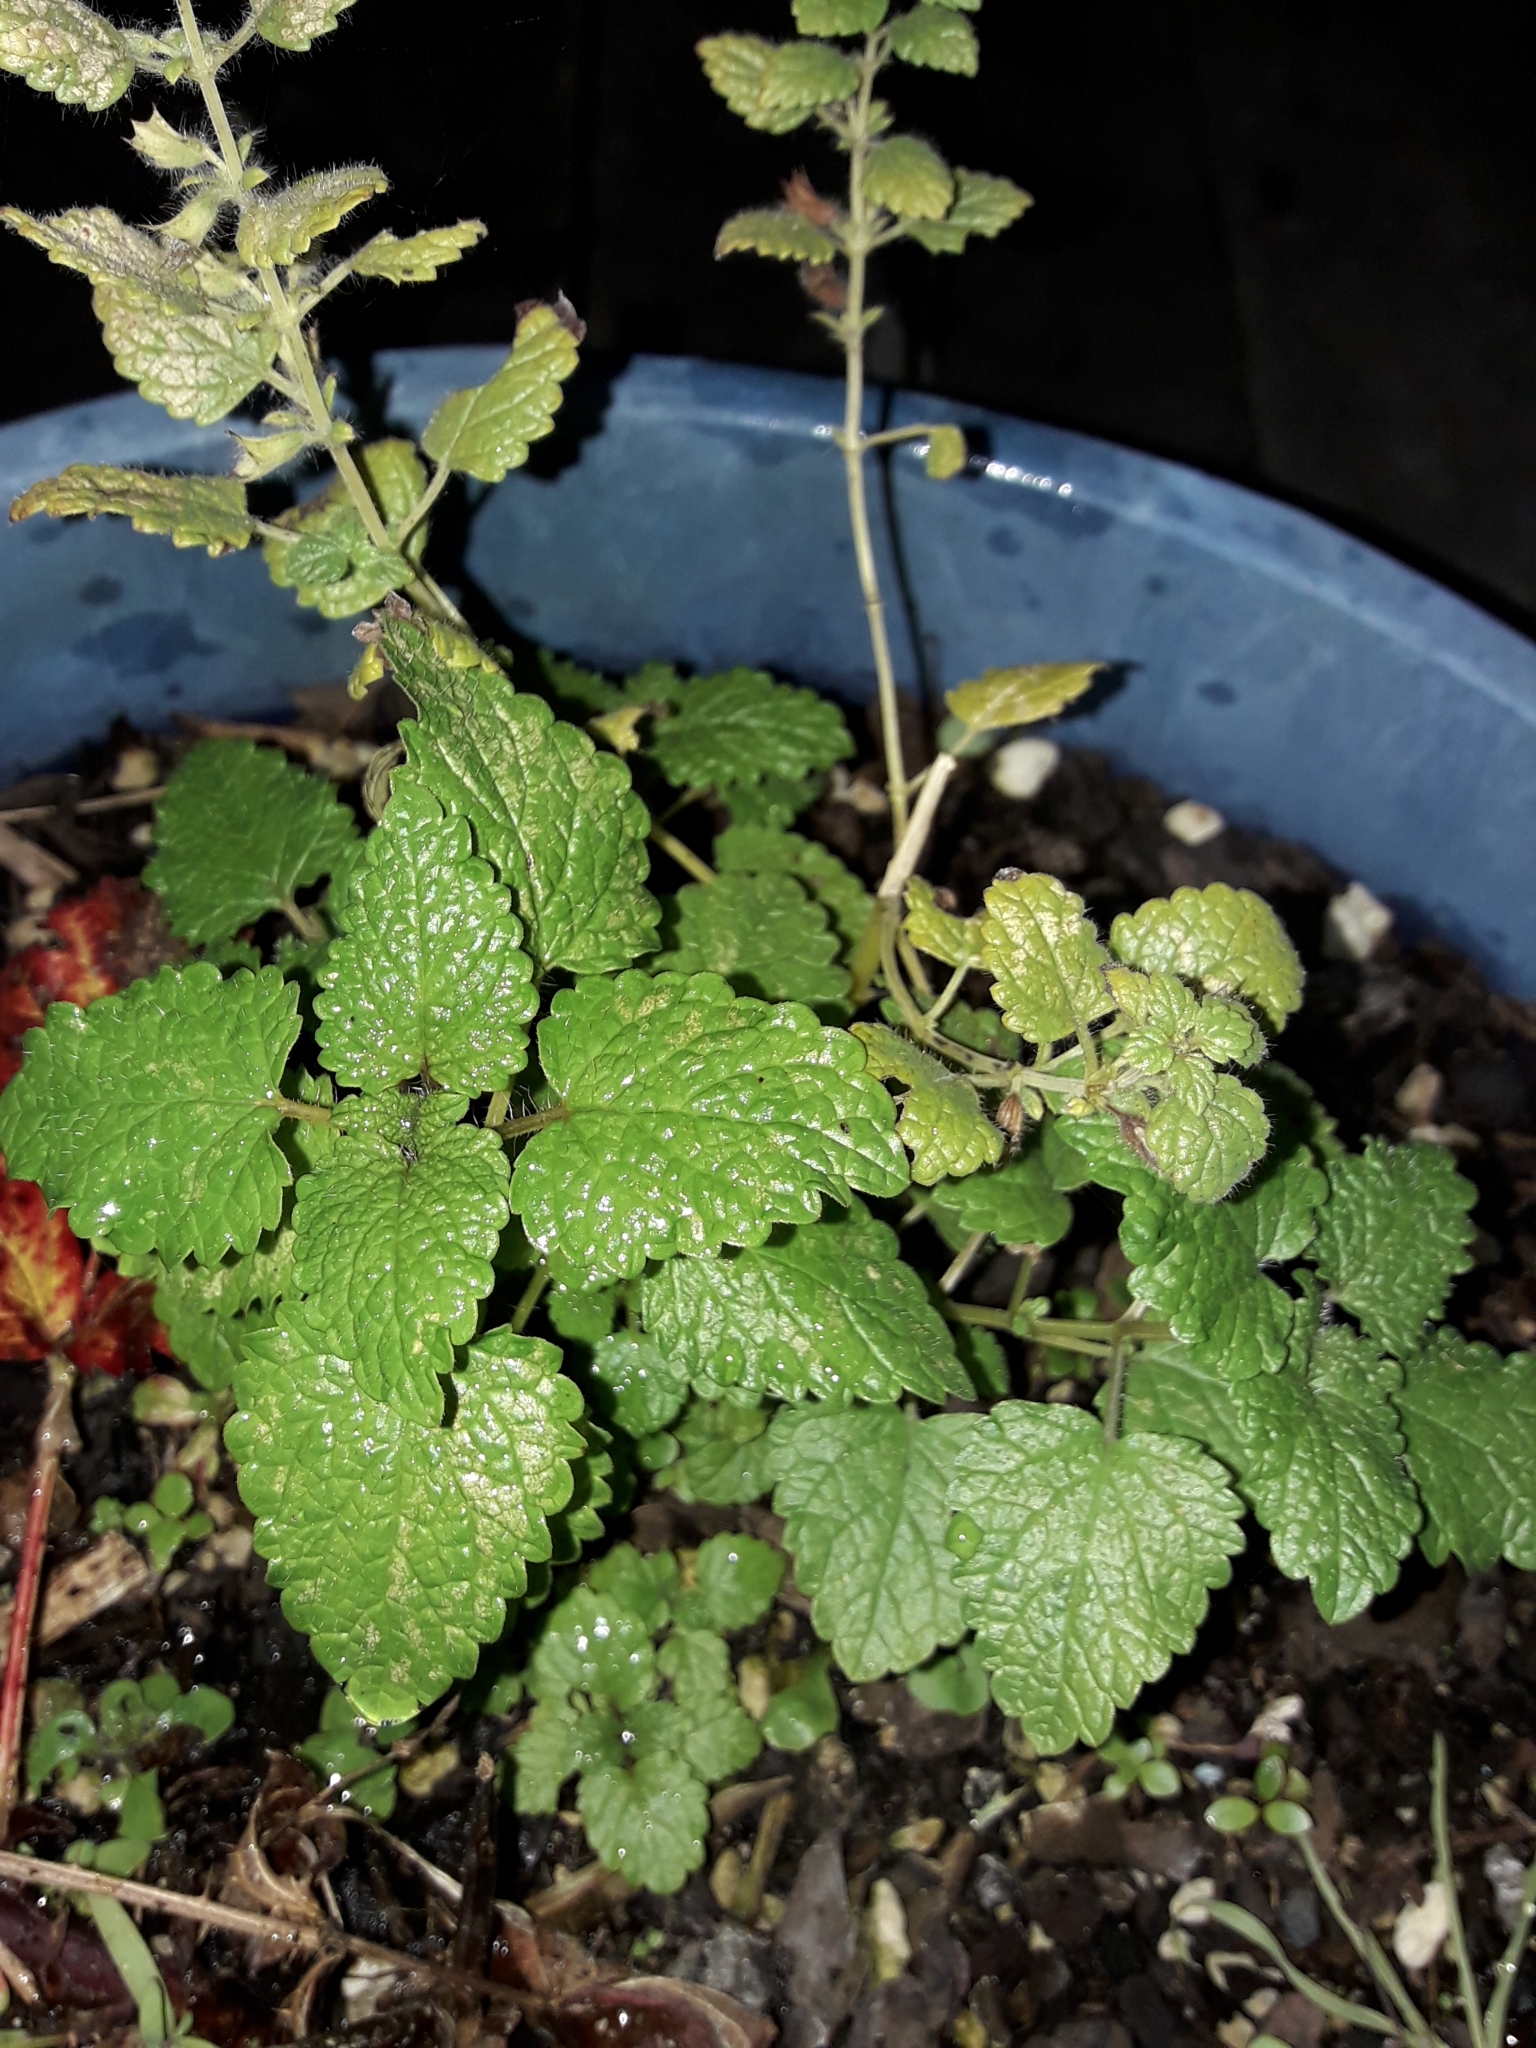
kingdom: Plantae
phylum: Tracheophyta
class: Magnoliopsida
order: Lamiales
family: Lamiaceae
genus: Melissa
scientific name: Melissa officinalis
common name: Balm
